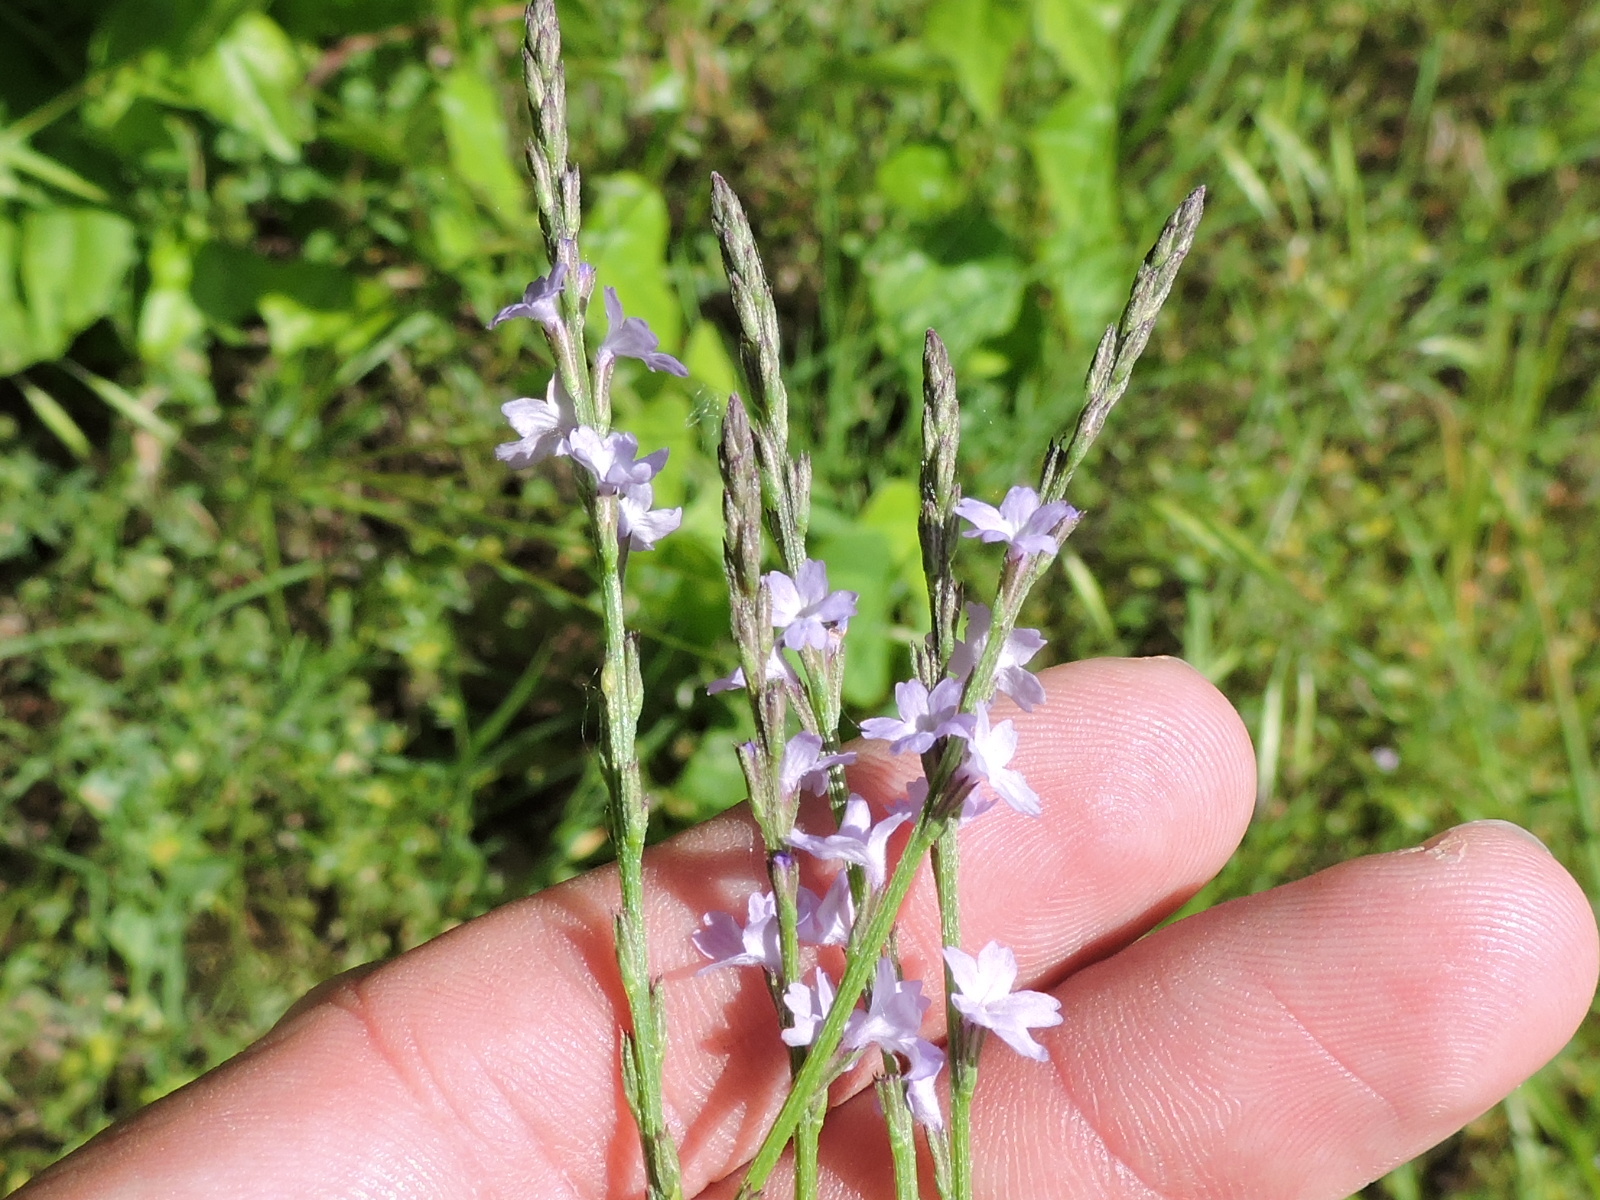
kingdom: Plantae
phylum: Tracheophyta
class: Magnoliopsida
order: Lamiales
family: Verbenaceae
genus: Verbena
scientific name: Verbena halei
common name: Texas vervain
